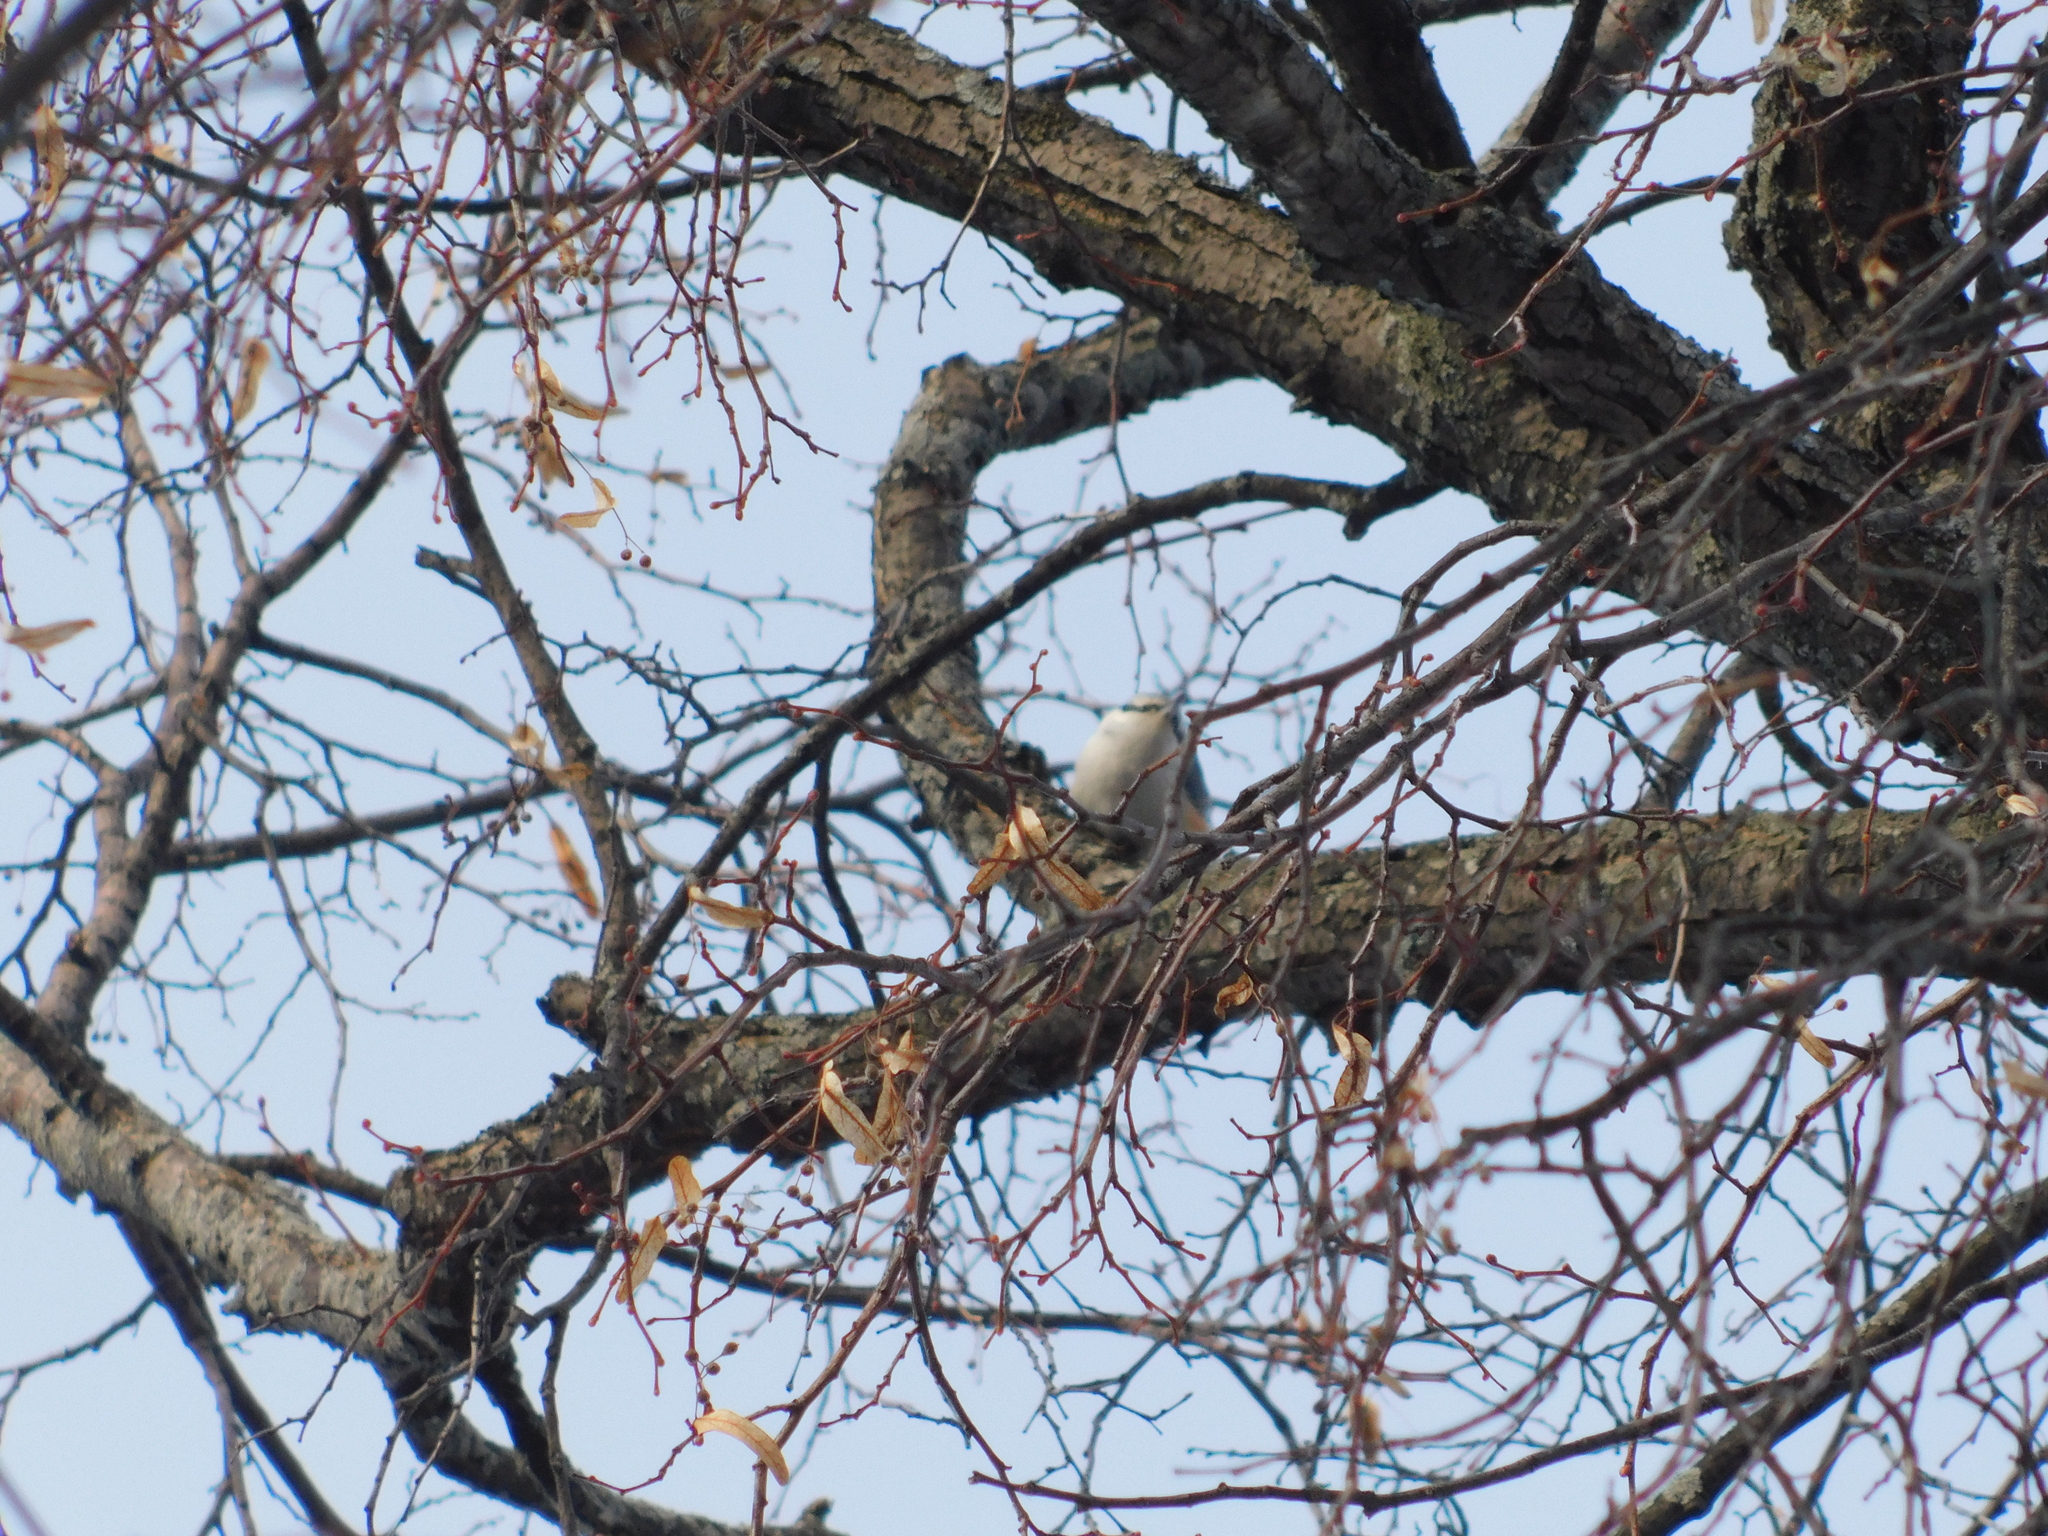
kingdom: Animalia
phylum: Chordata
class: Aves
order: Passeriformes
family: Sittidae
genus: Sitta
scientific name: Sitta europaea
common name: Eurasian nuthatch
